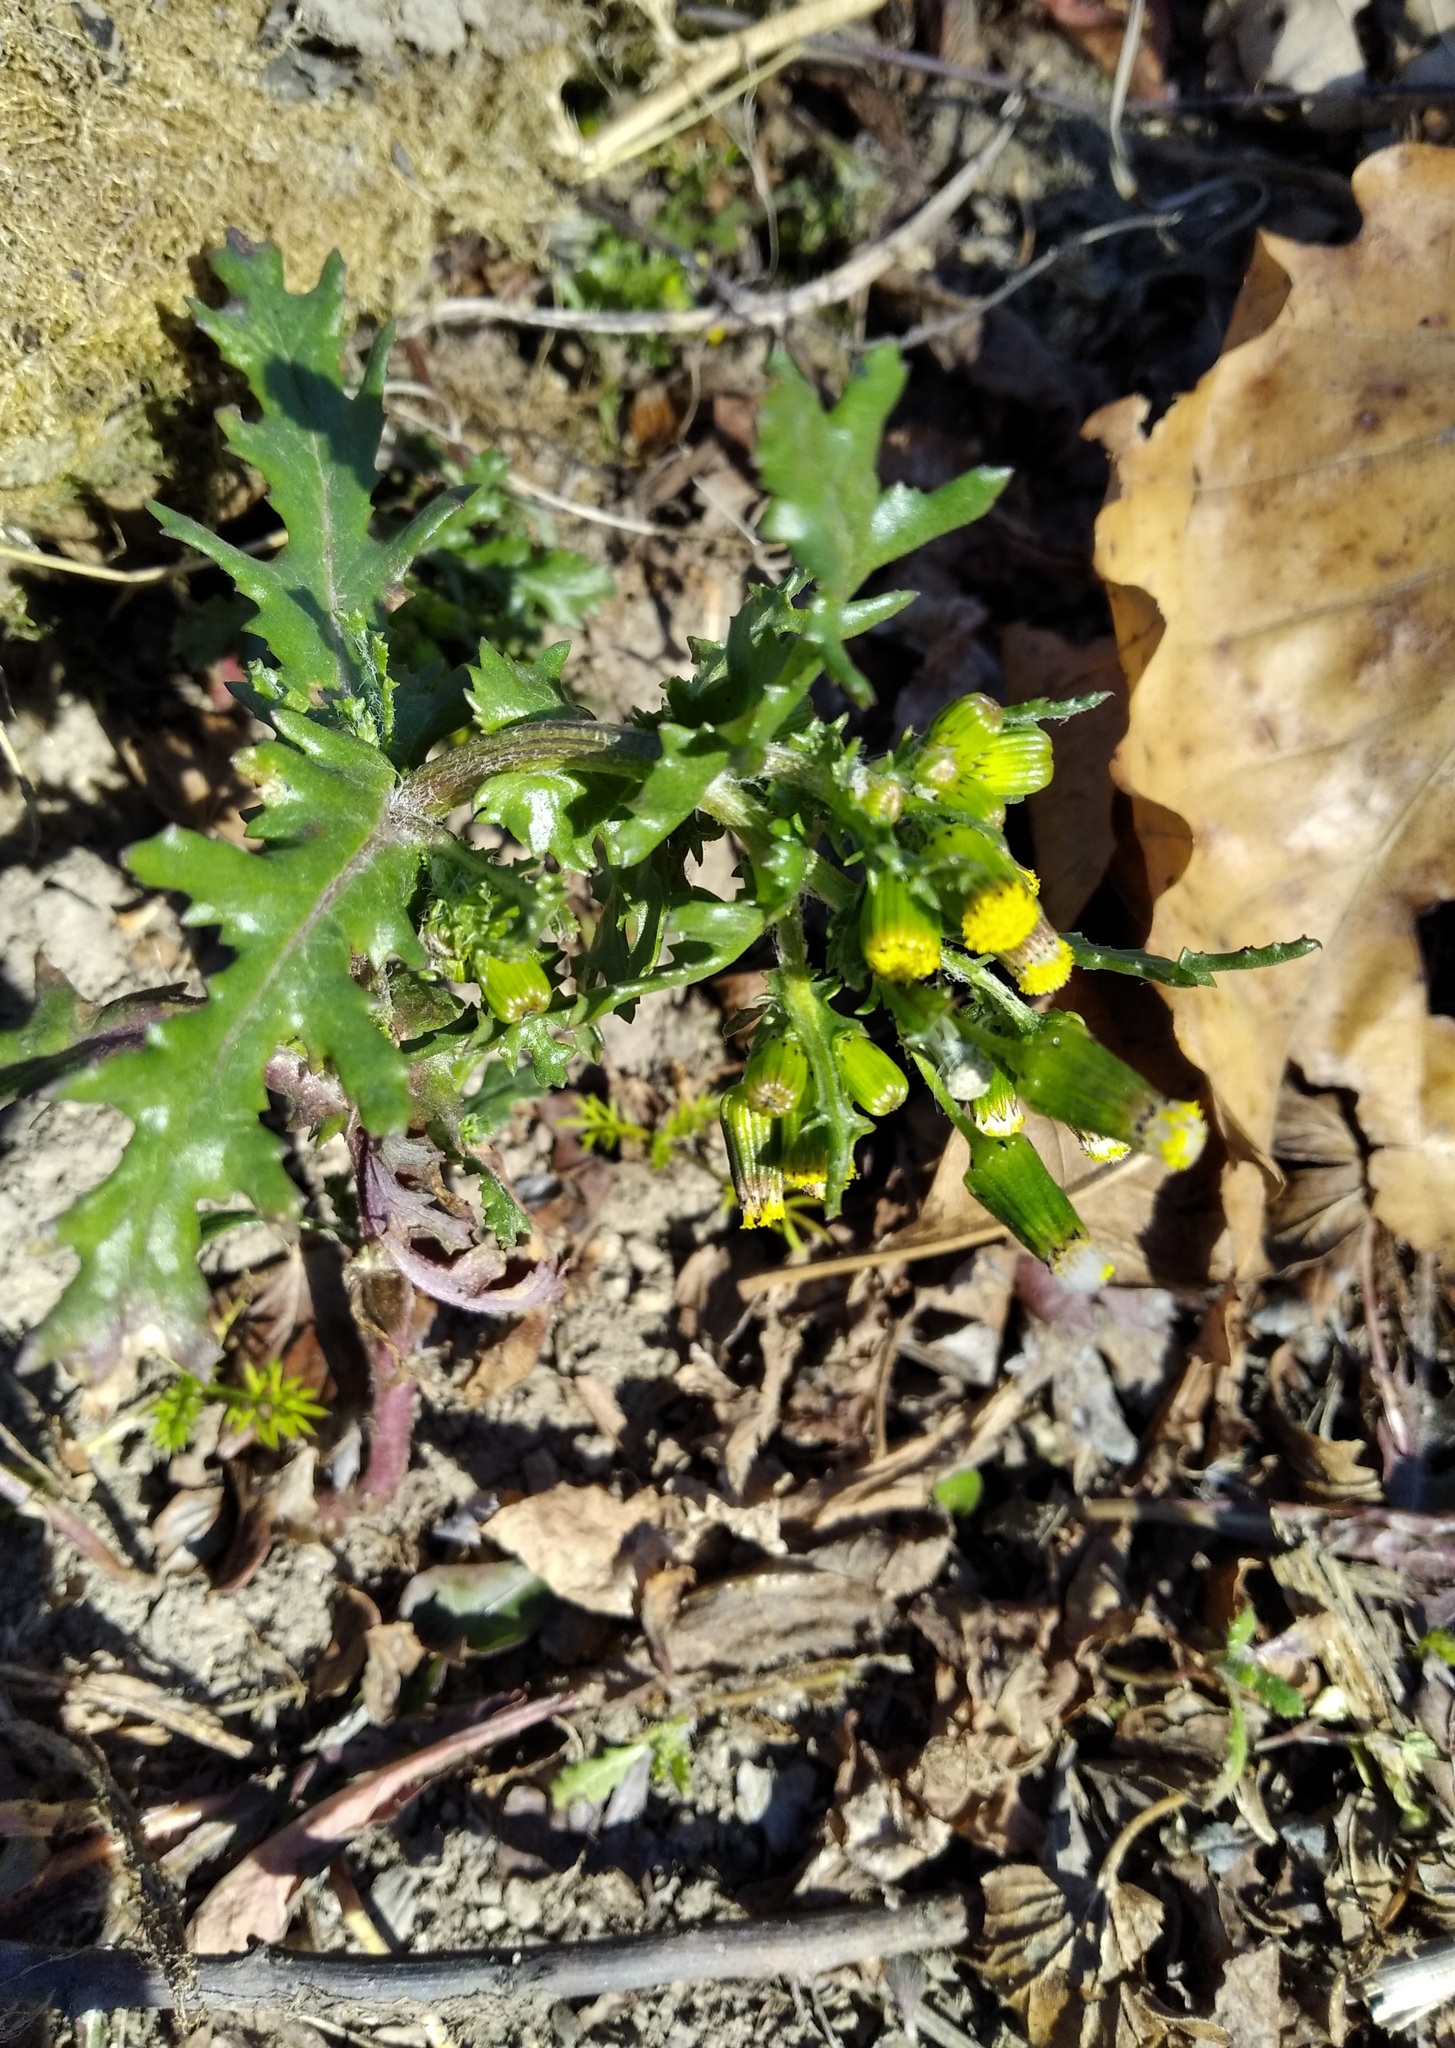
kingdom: Plantae
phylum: Tracheophyta
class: Magnoliopsida
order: Asterales
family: Asteraceae
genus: Senecio
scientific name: Senecio vulgaris
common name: Old-man-in-the-spring
